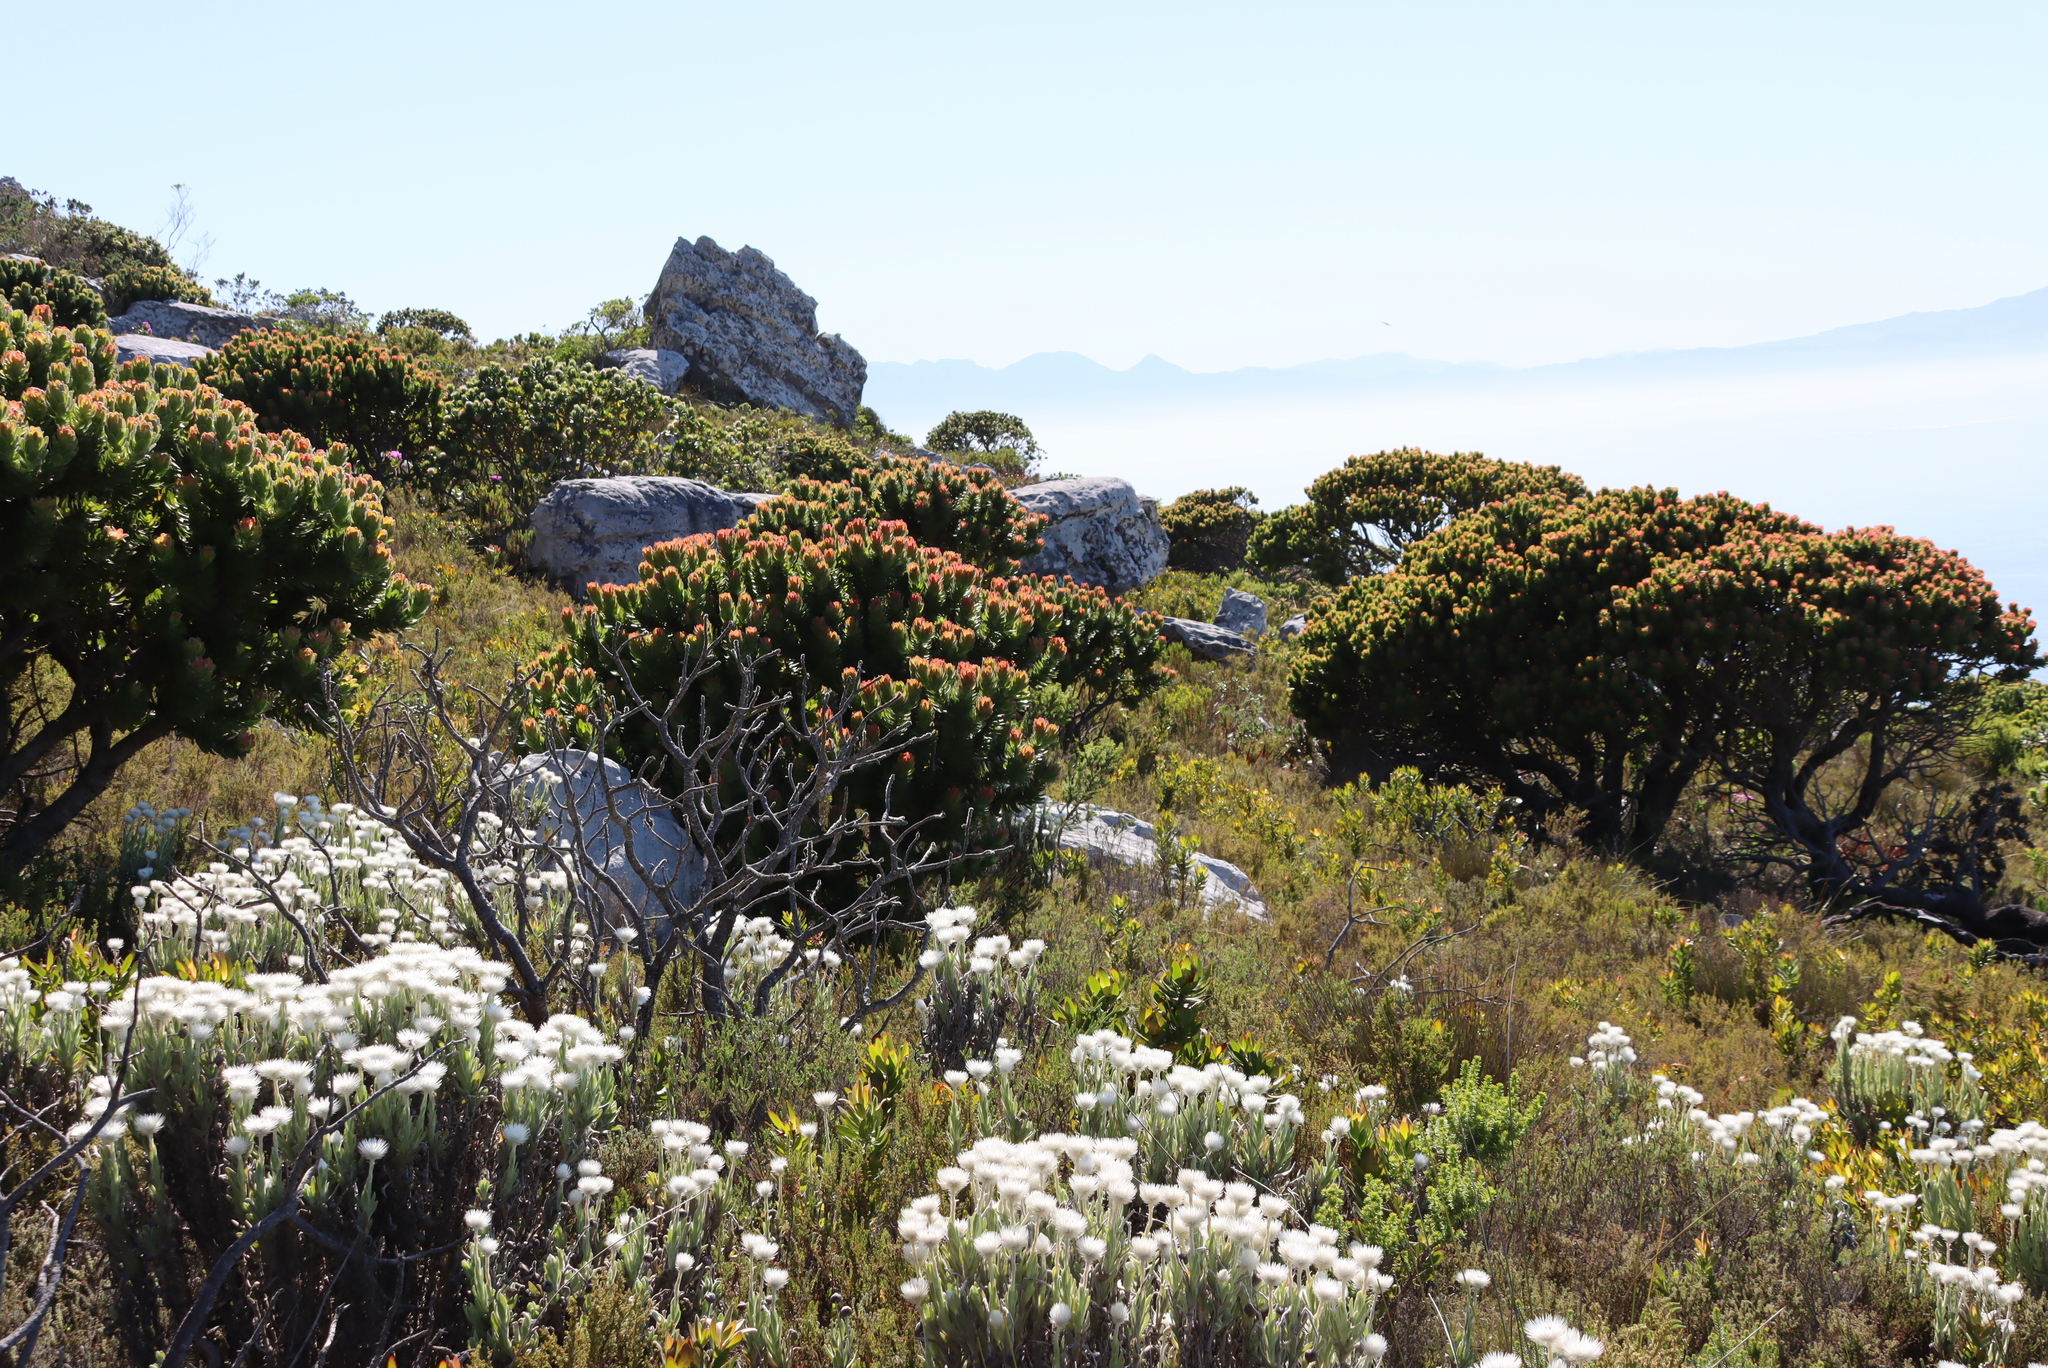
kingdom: Plantae
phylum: Tracheophyta
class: Magnoliopsida
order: Proteales
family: Proteaceae
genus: Mimetes
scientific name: Mimetes fimbriifolius
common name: Fringed bottlebrush
